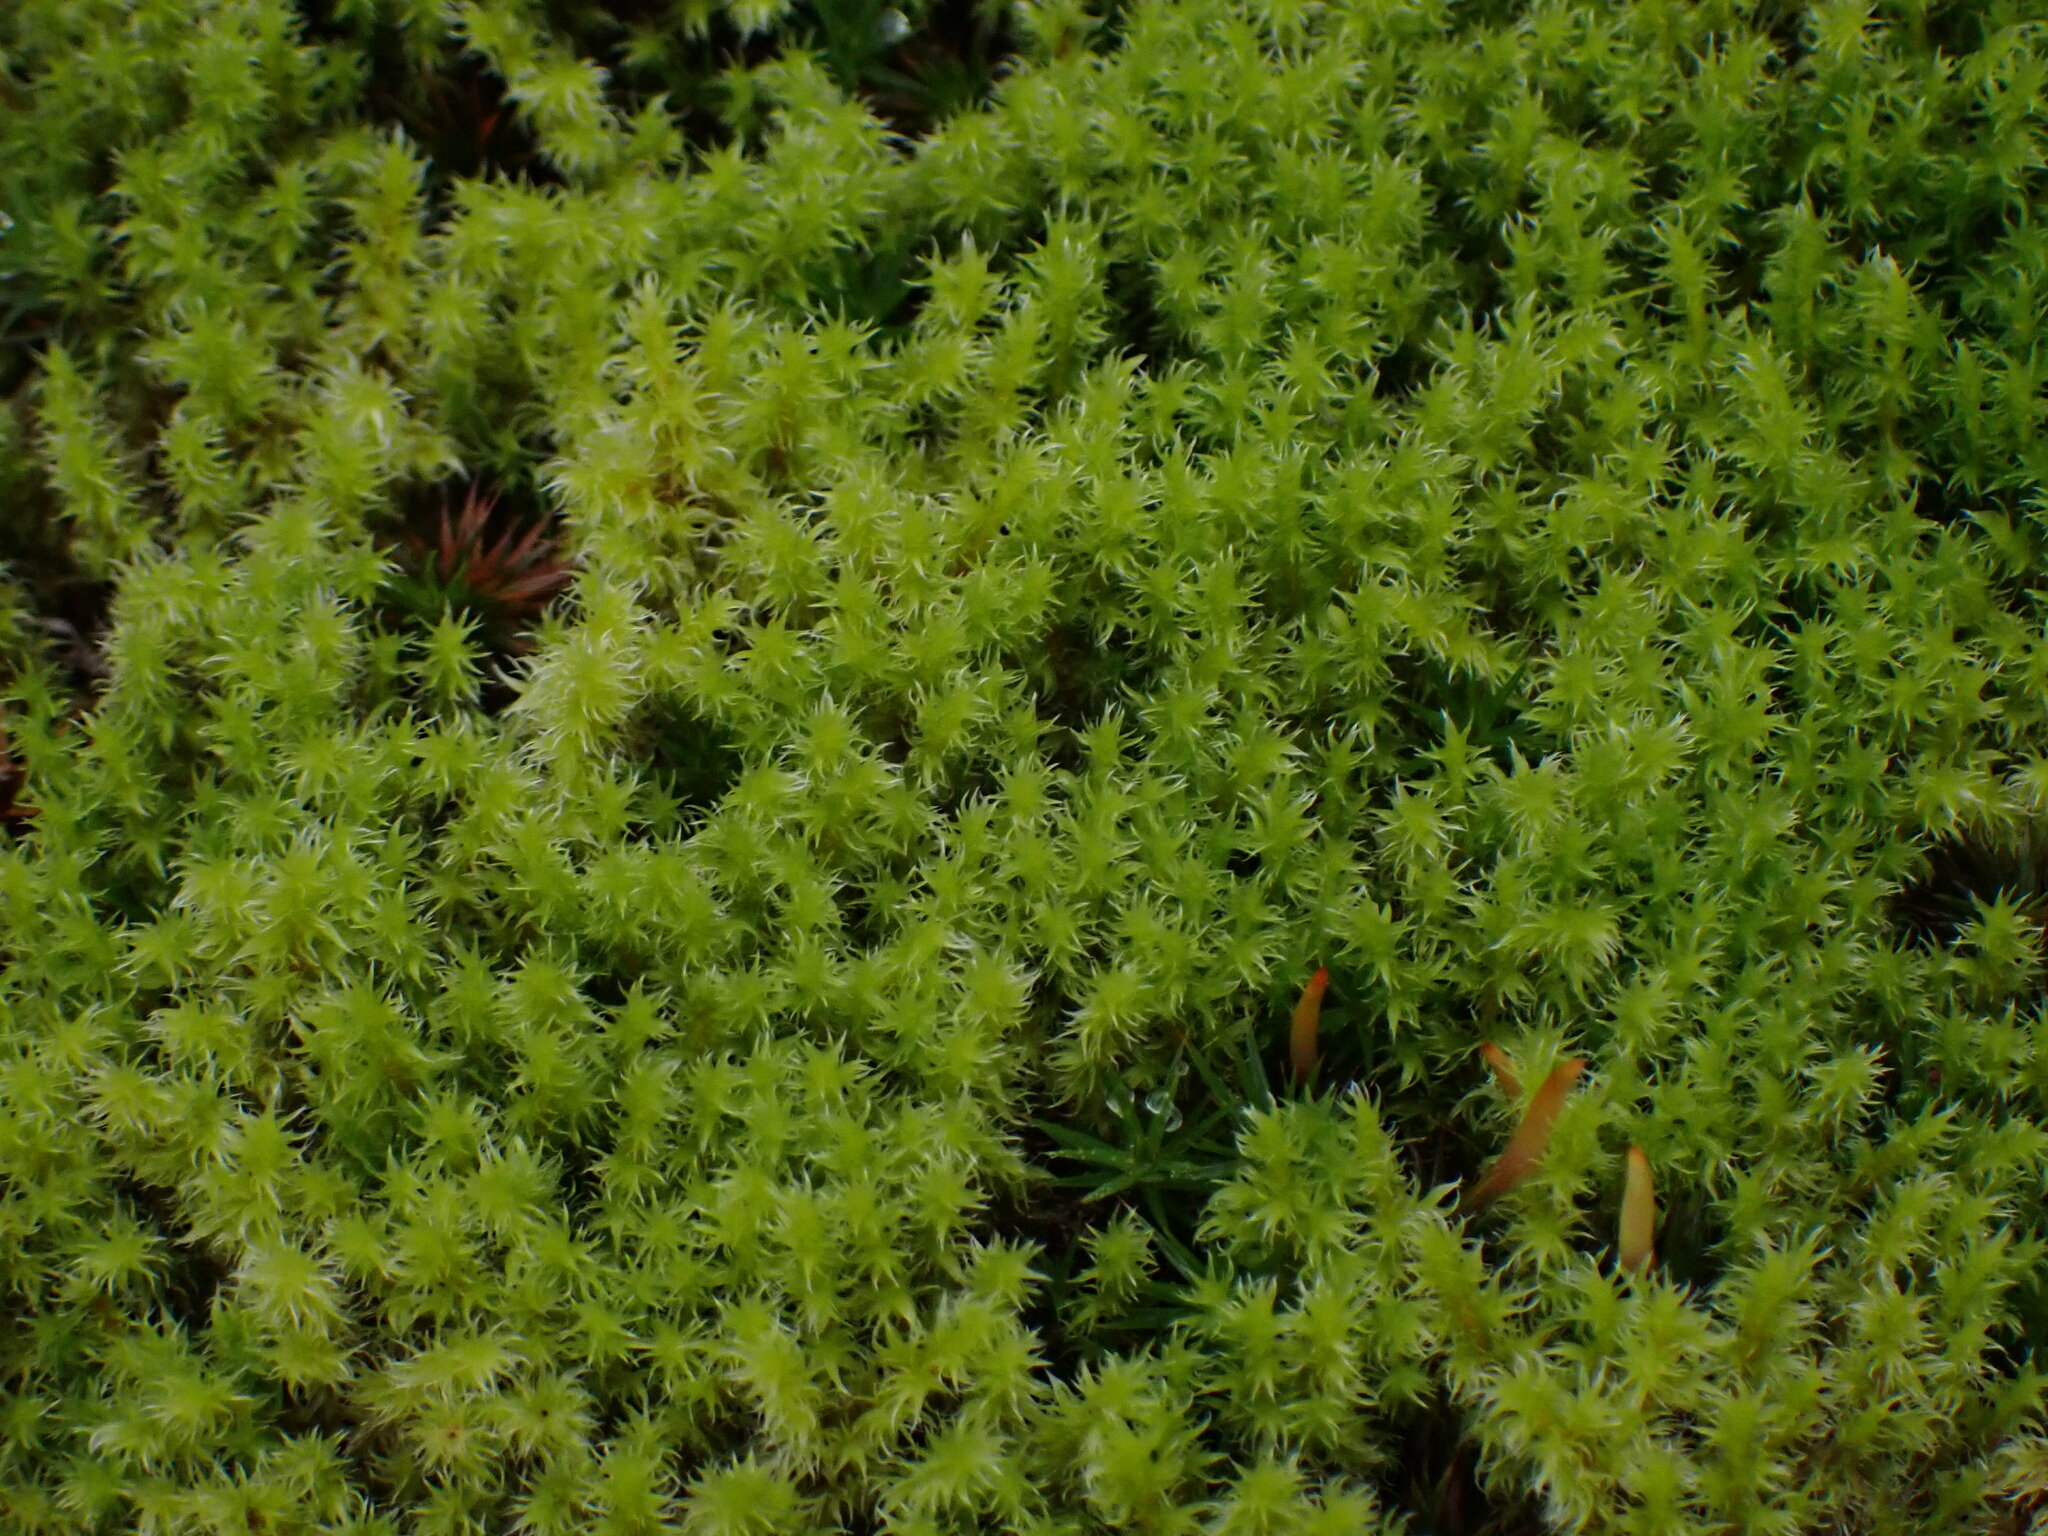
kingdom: Plantae
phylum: Bryophyta
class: Bryopsida
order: Grimmiales
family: Grimmiaceae
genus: Niphotrichum
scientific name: Niphotrichum elongatum
